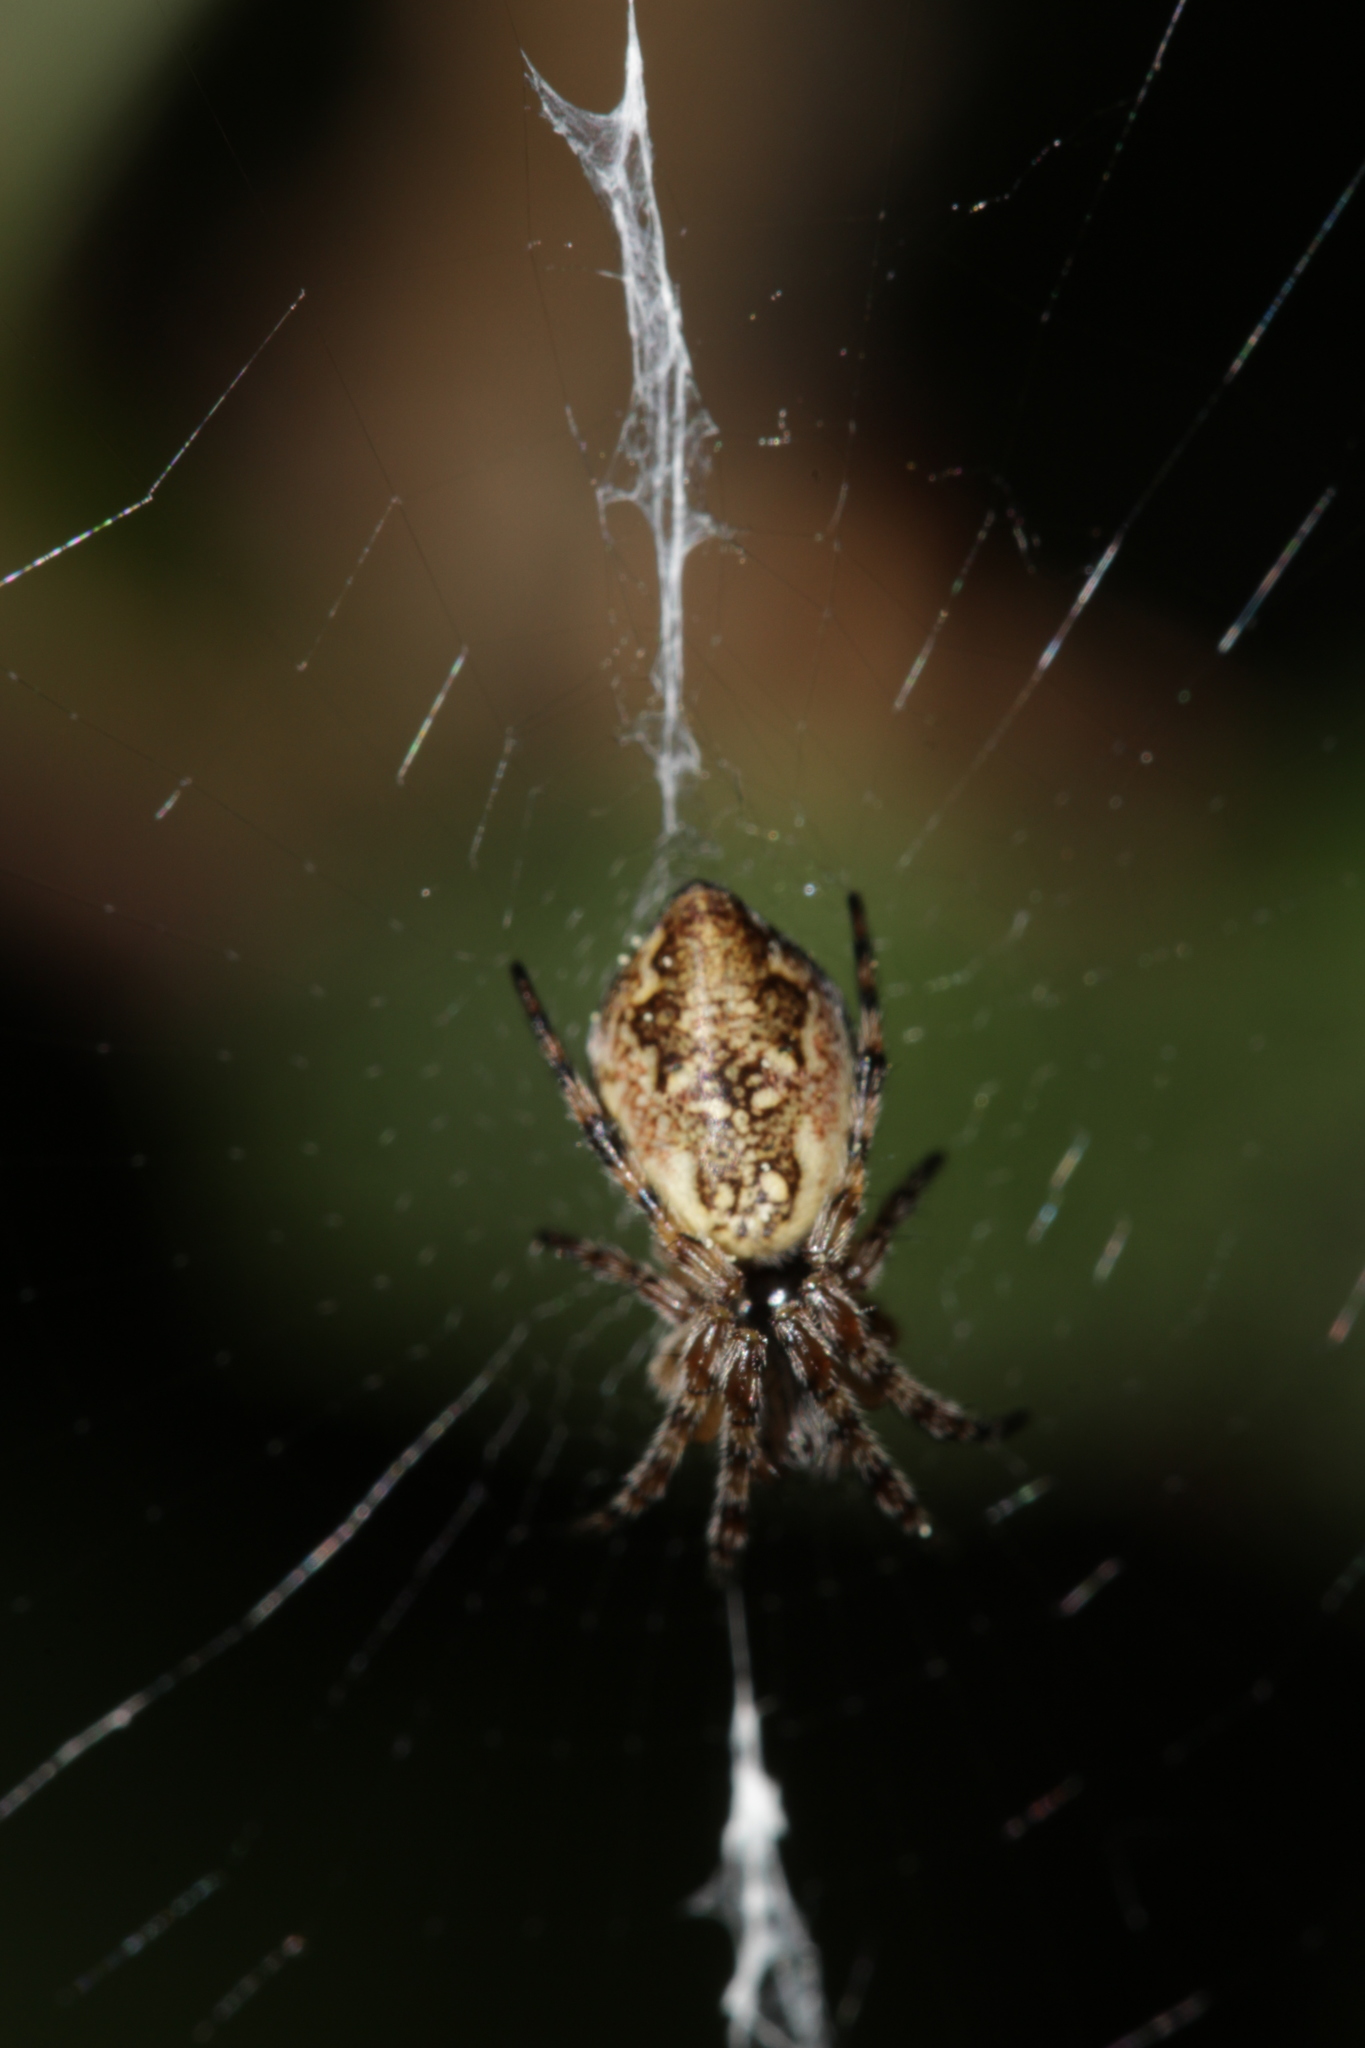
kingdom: Animalia
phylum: Arthropoda
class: Arachnida
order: Araneae
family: Araneidae
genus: Cyclosa
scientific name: Cyclosa conica
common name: Conical trashline orbweaver
